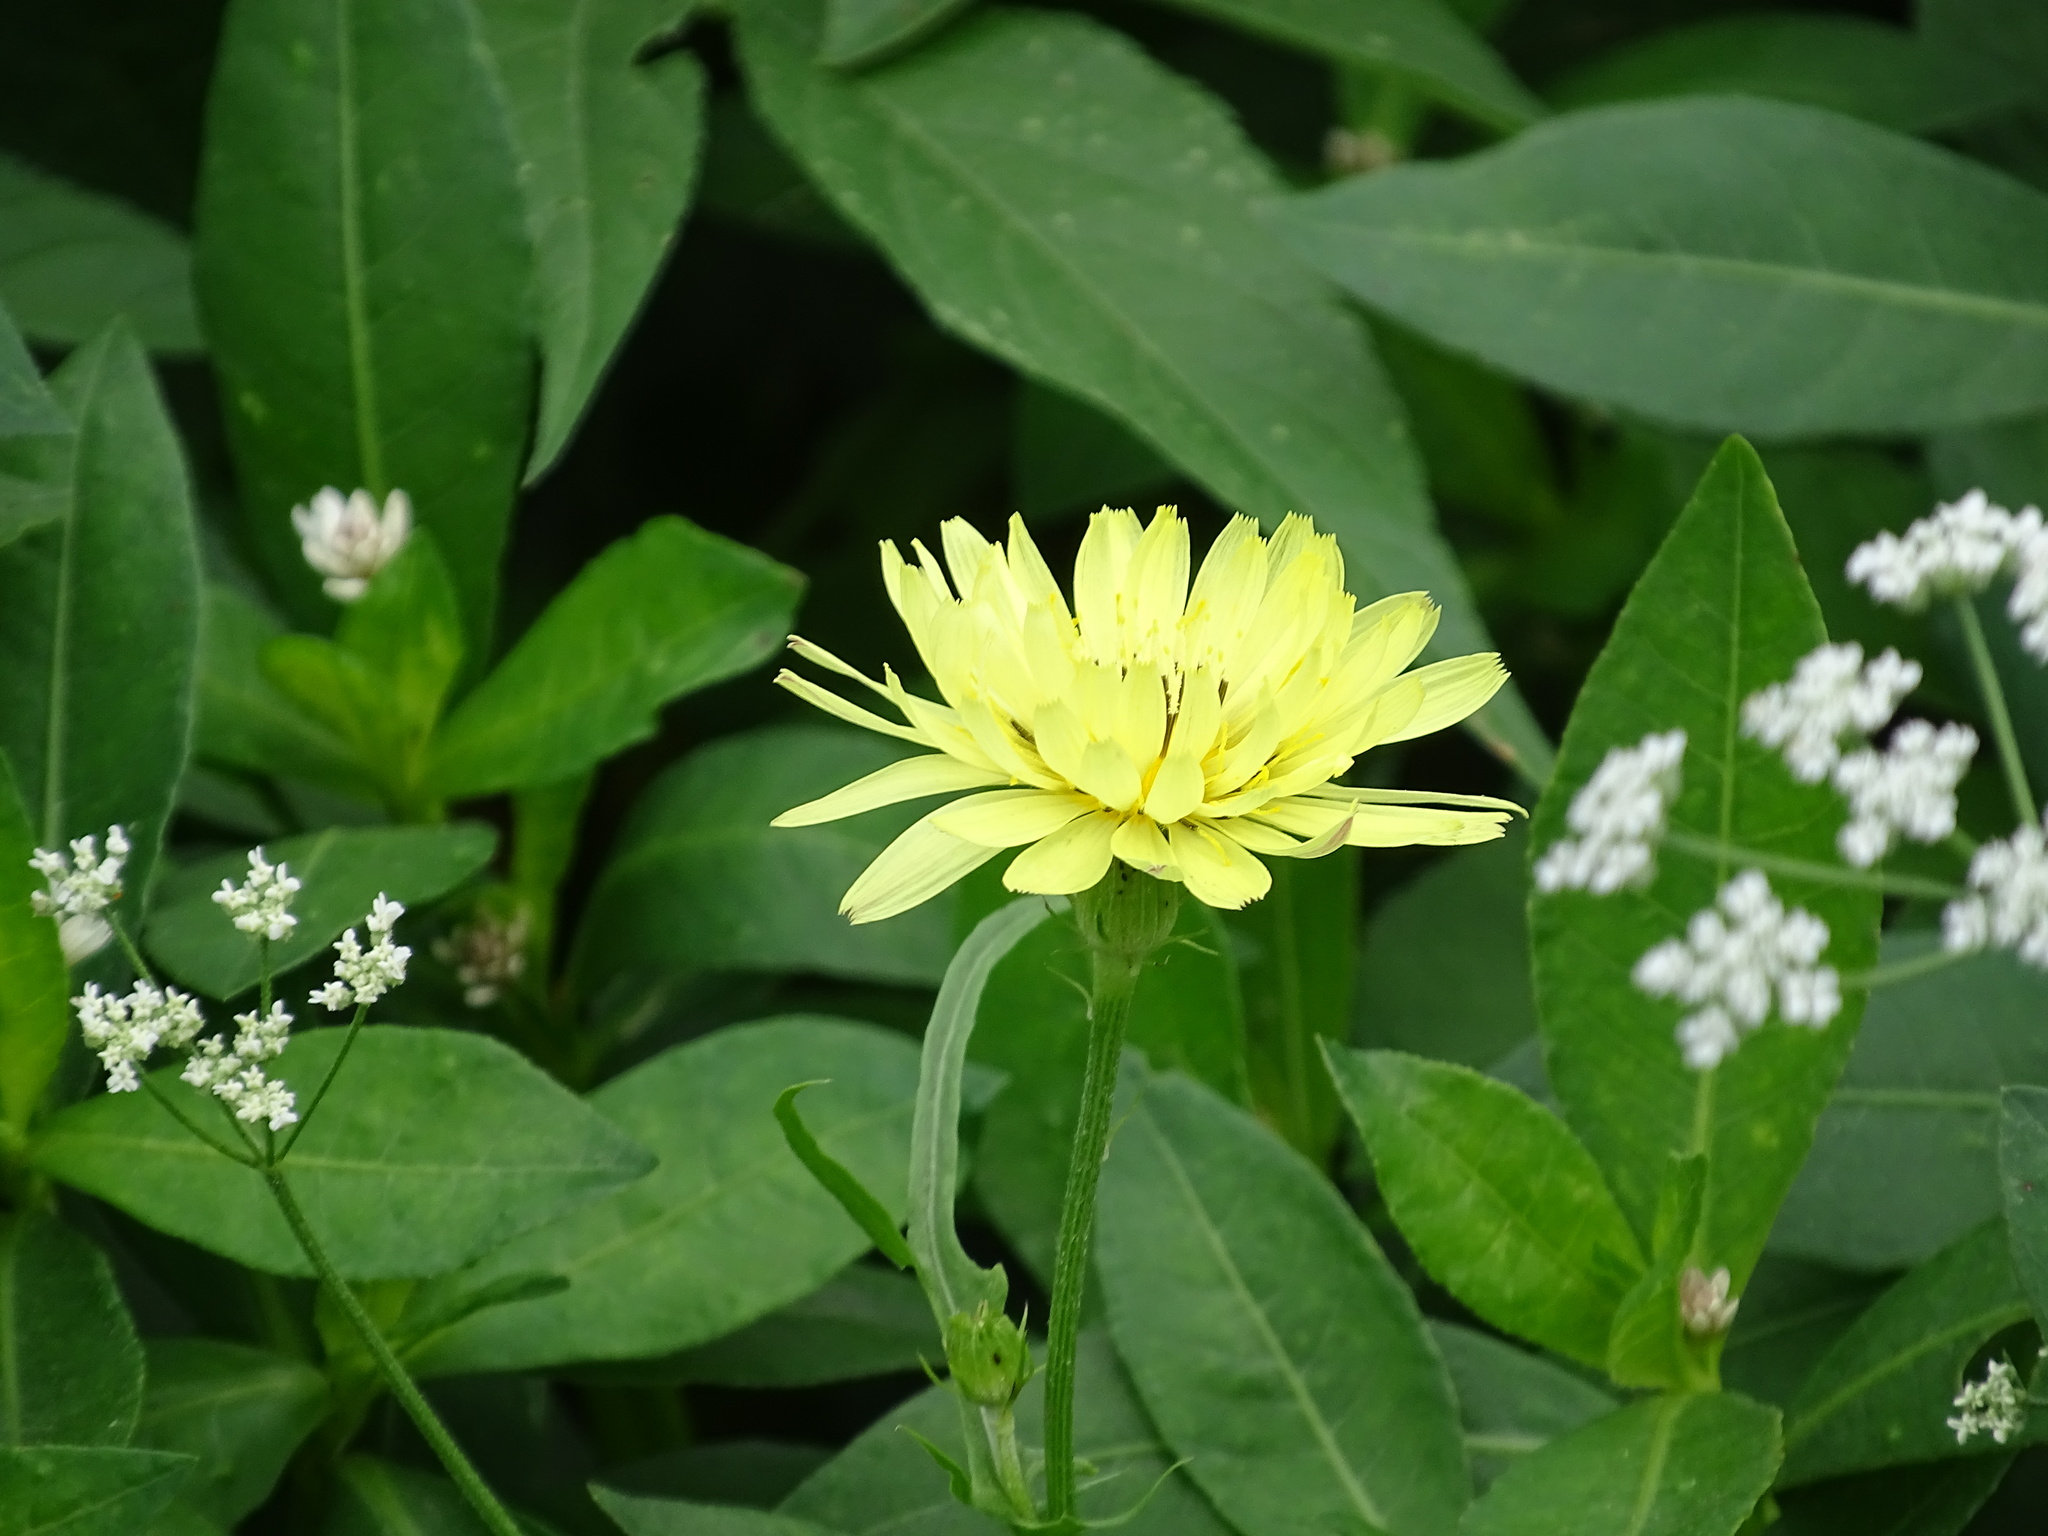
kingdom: Plantae
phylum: Tracheophyta
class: Magnoliopsida
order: Asterales
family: Asteraceae
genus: Pyrrhopappus
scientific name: Pyrrhopappus pauciflorus
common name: Texas false dandelion
